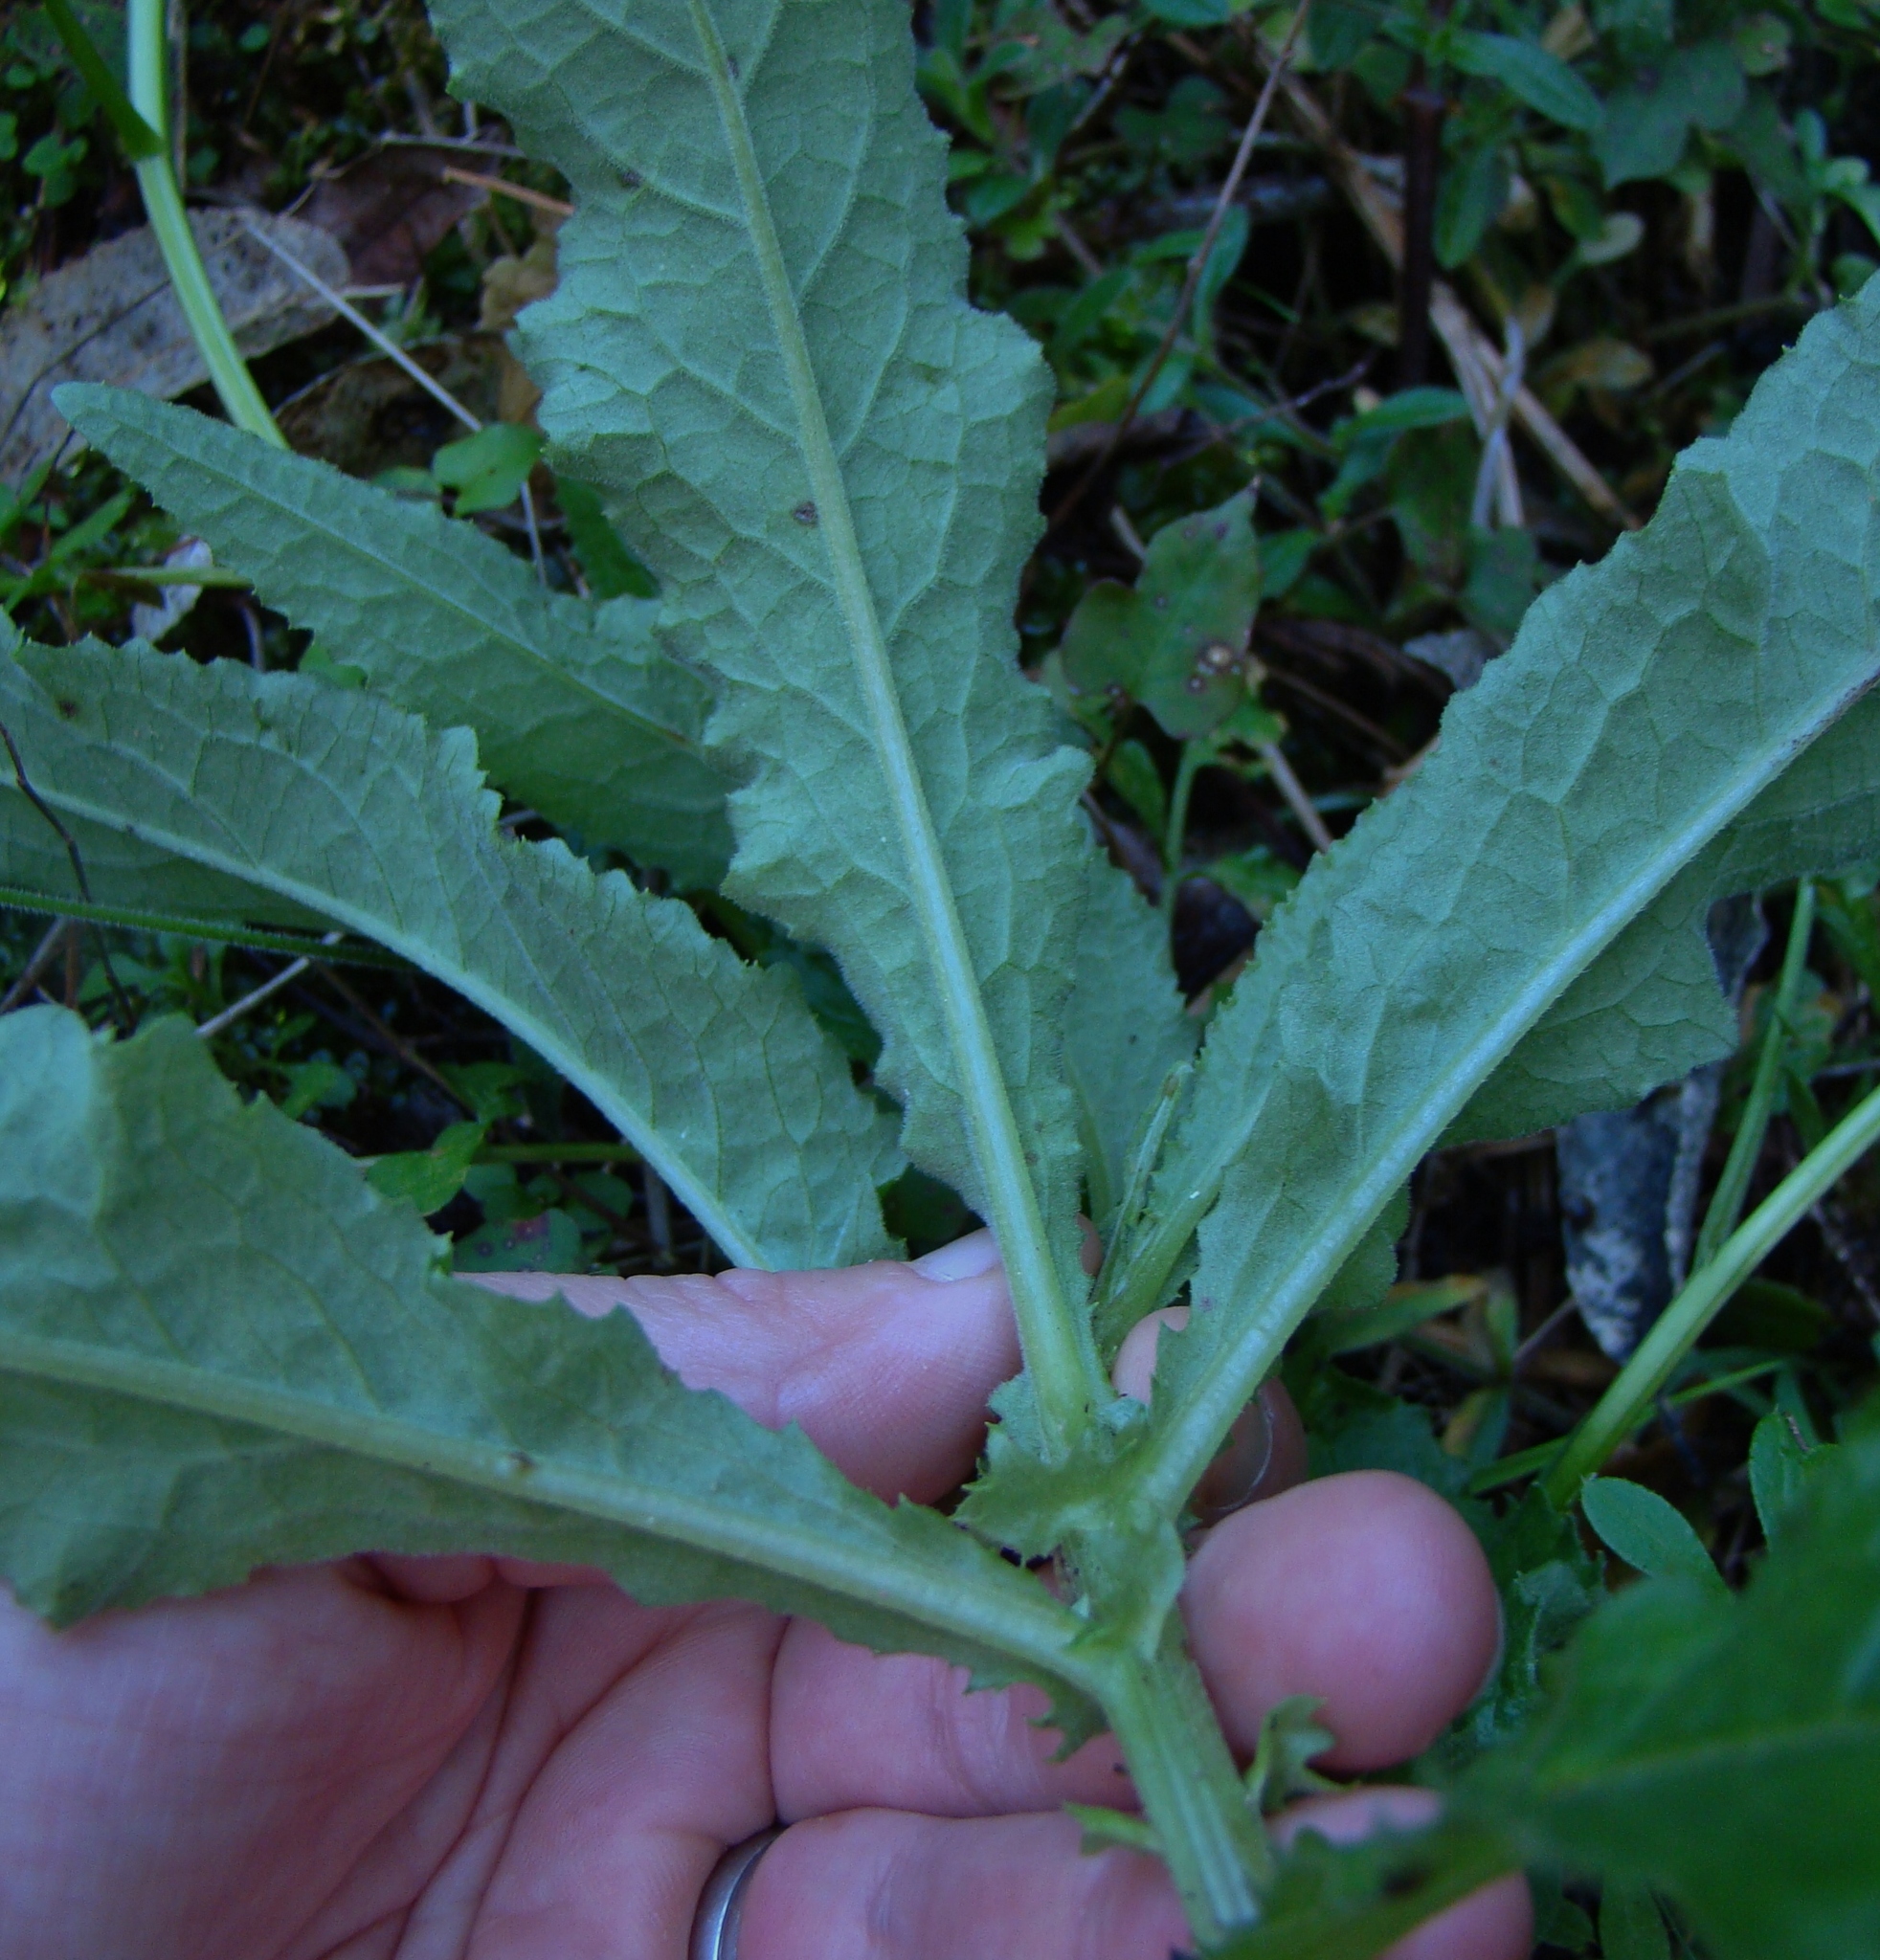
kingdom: Plantae
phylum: Tracheophyta
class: Magnoliopsida
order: Asterales
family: Asteraceae
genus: Senecio
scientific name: Senecio minimus
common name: Toothed fireweed
